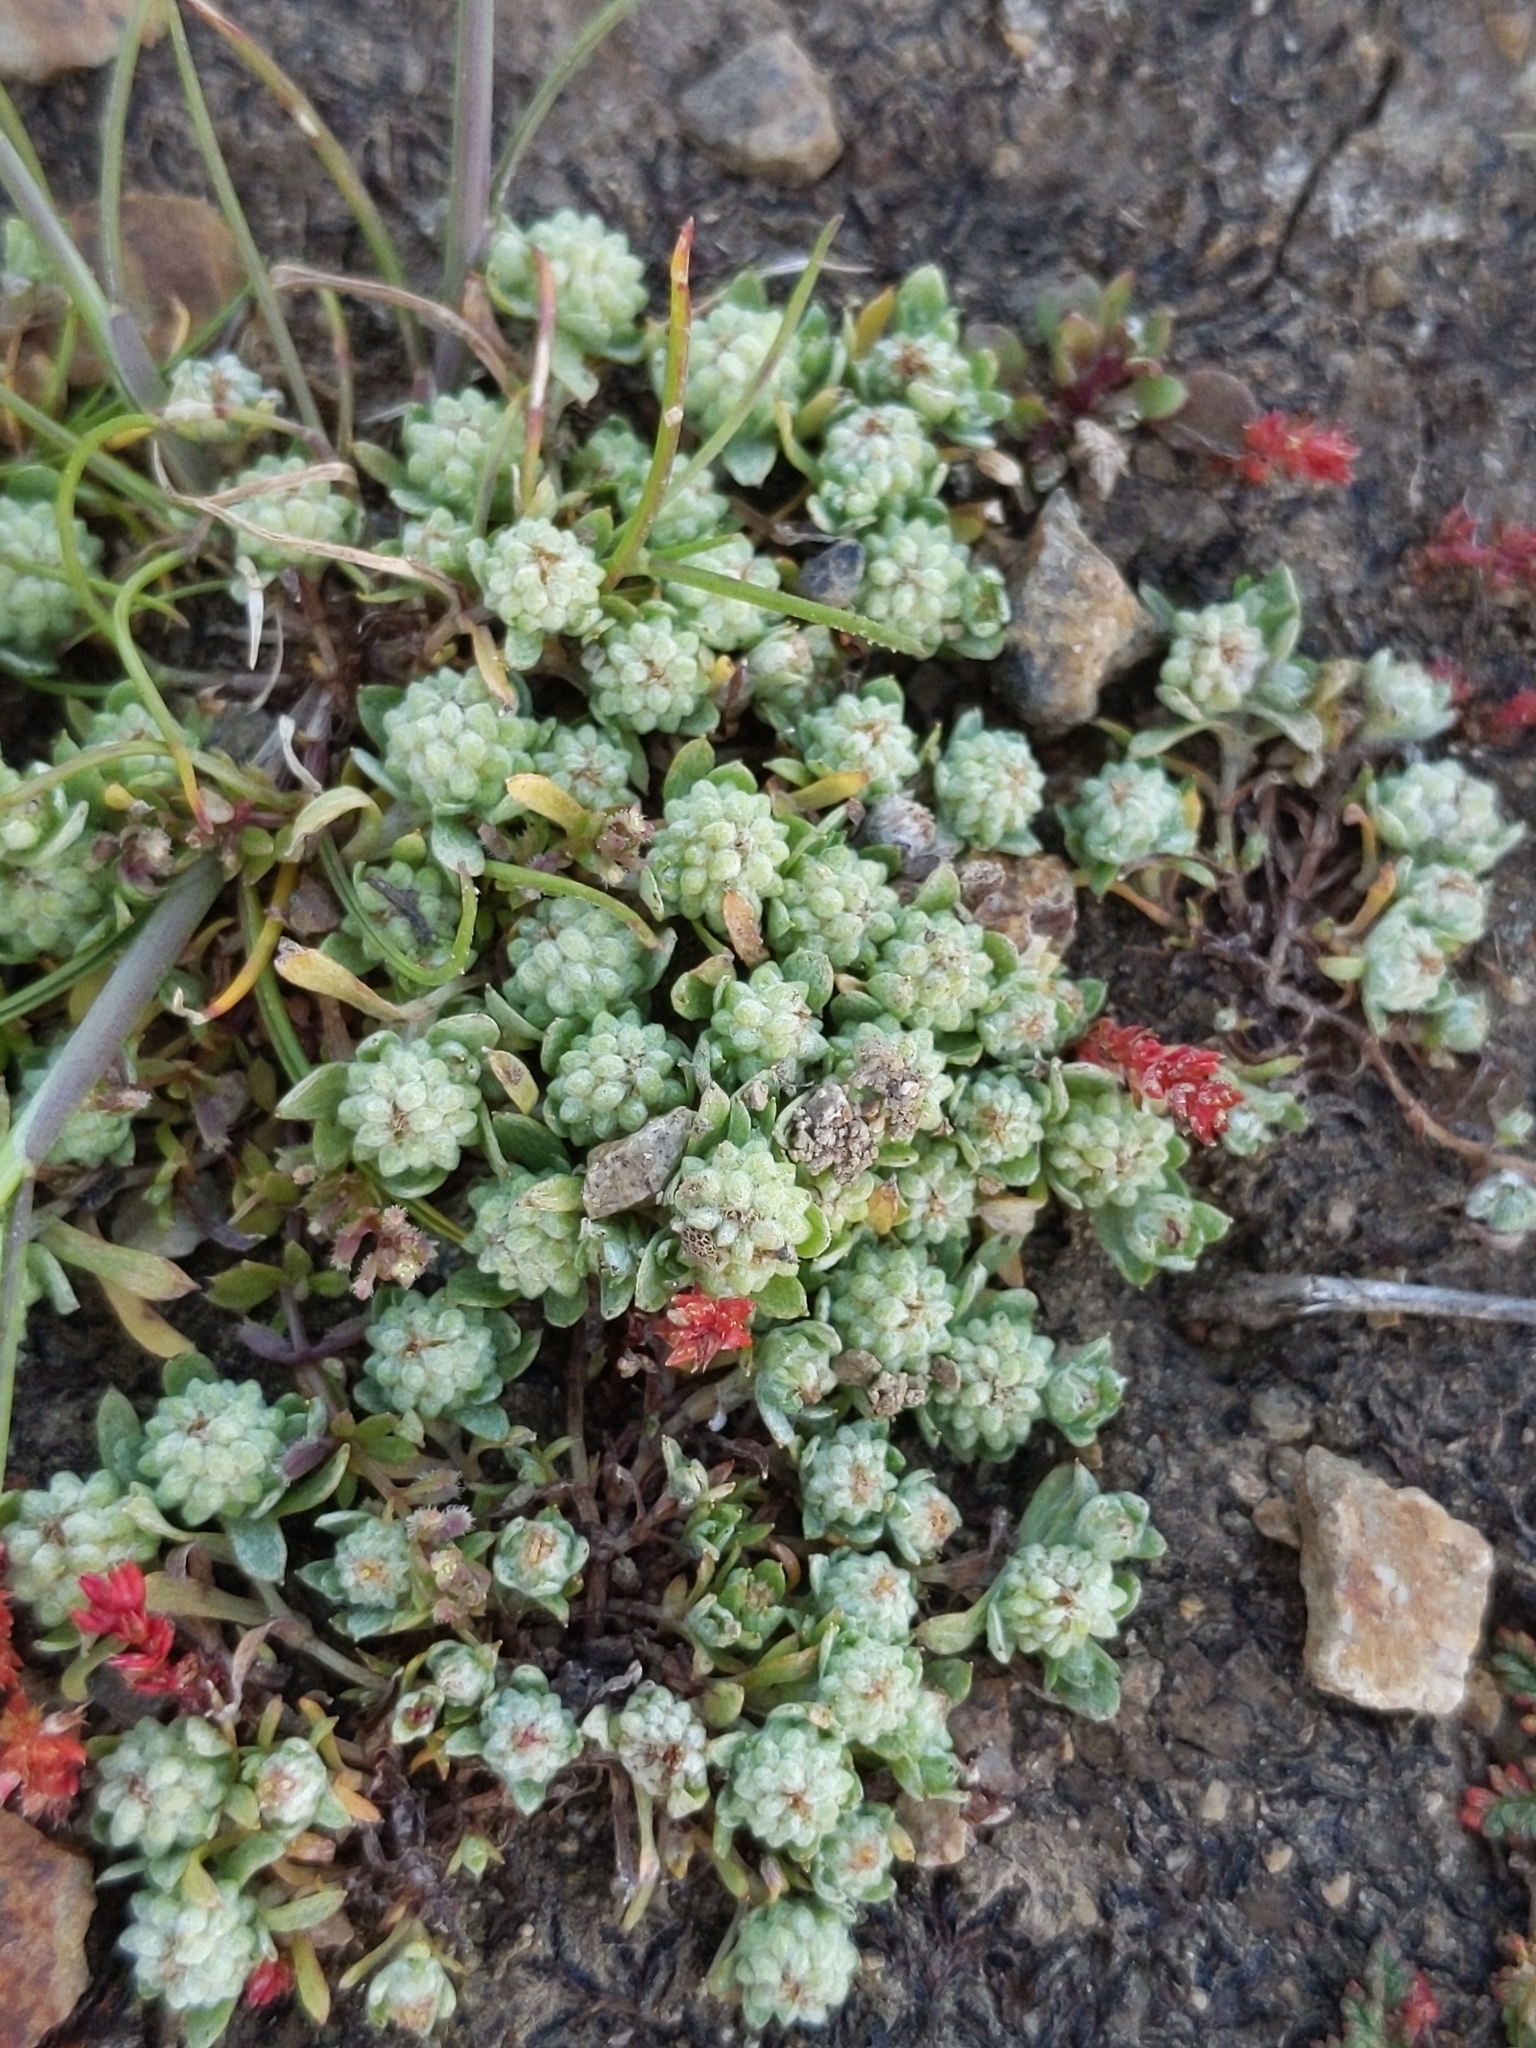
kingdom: Plantae
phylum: Tracheophyta
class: Magnoliopsida
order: Asterales
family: Asteraceae
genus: Psilocarphus
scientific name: Psilocarphus tenellus
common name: Slender woolly-marbles
